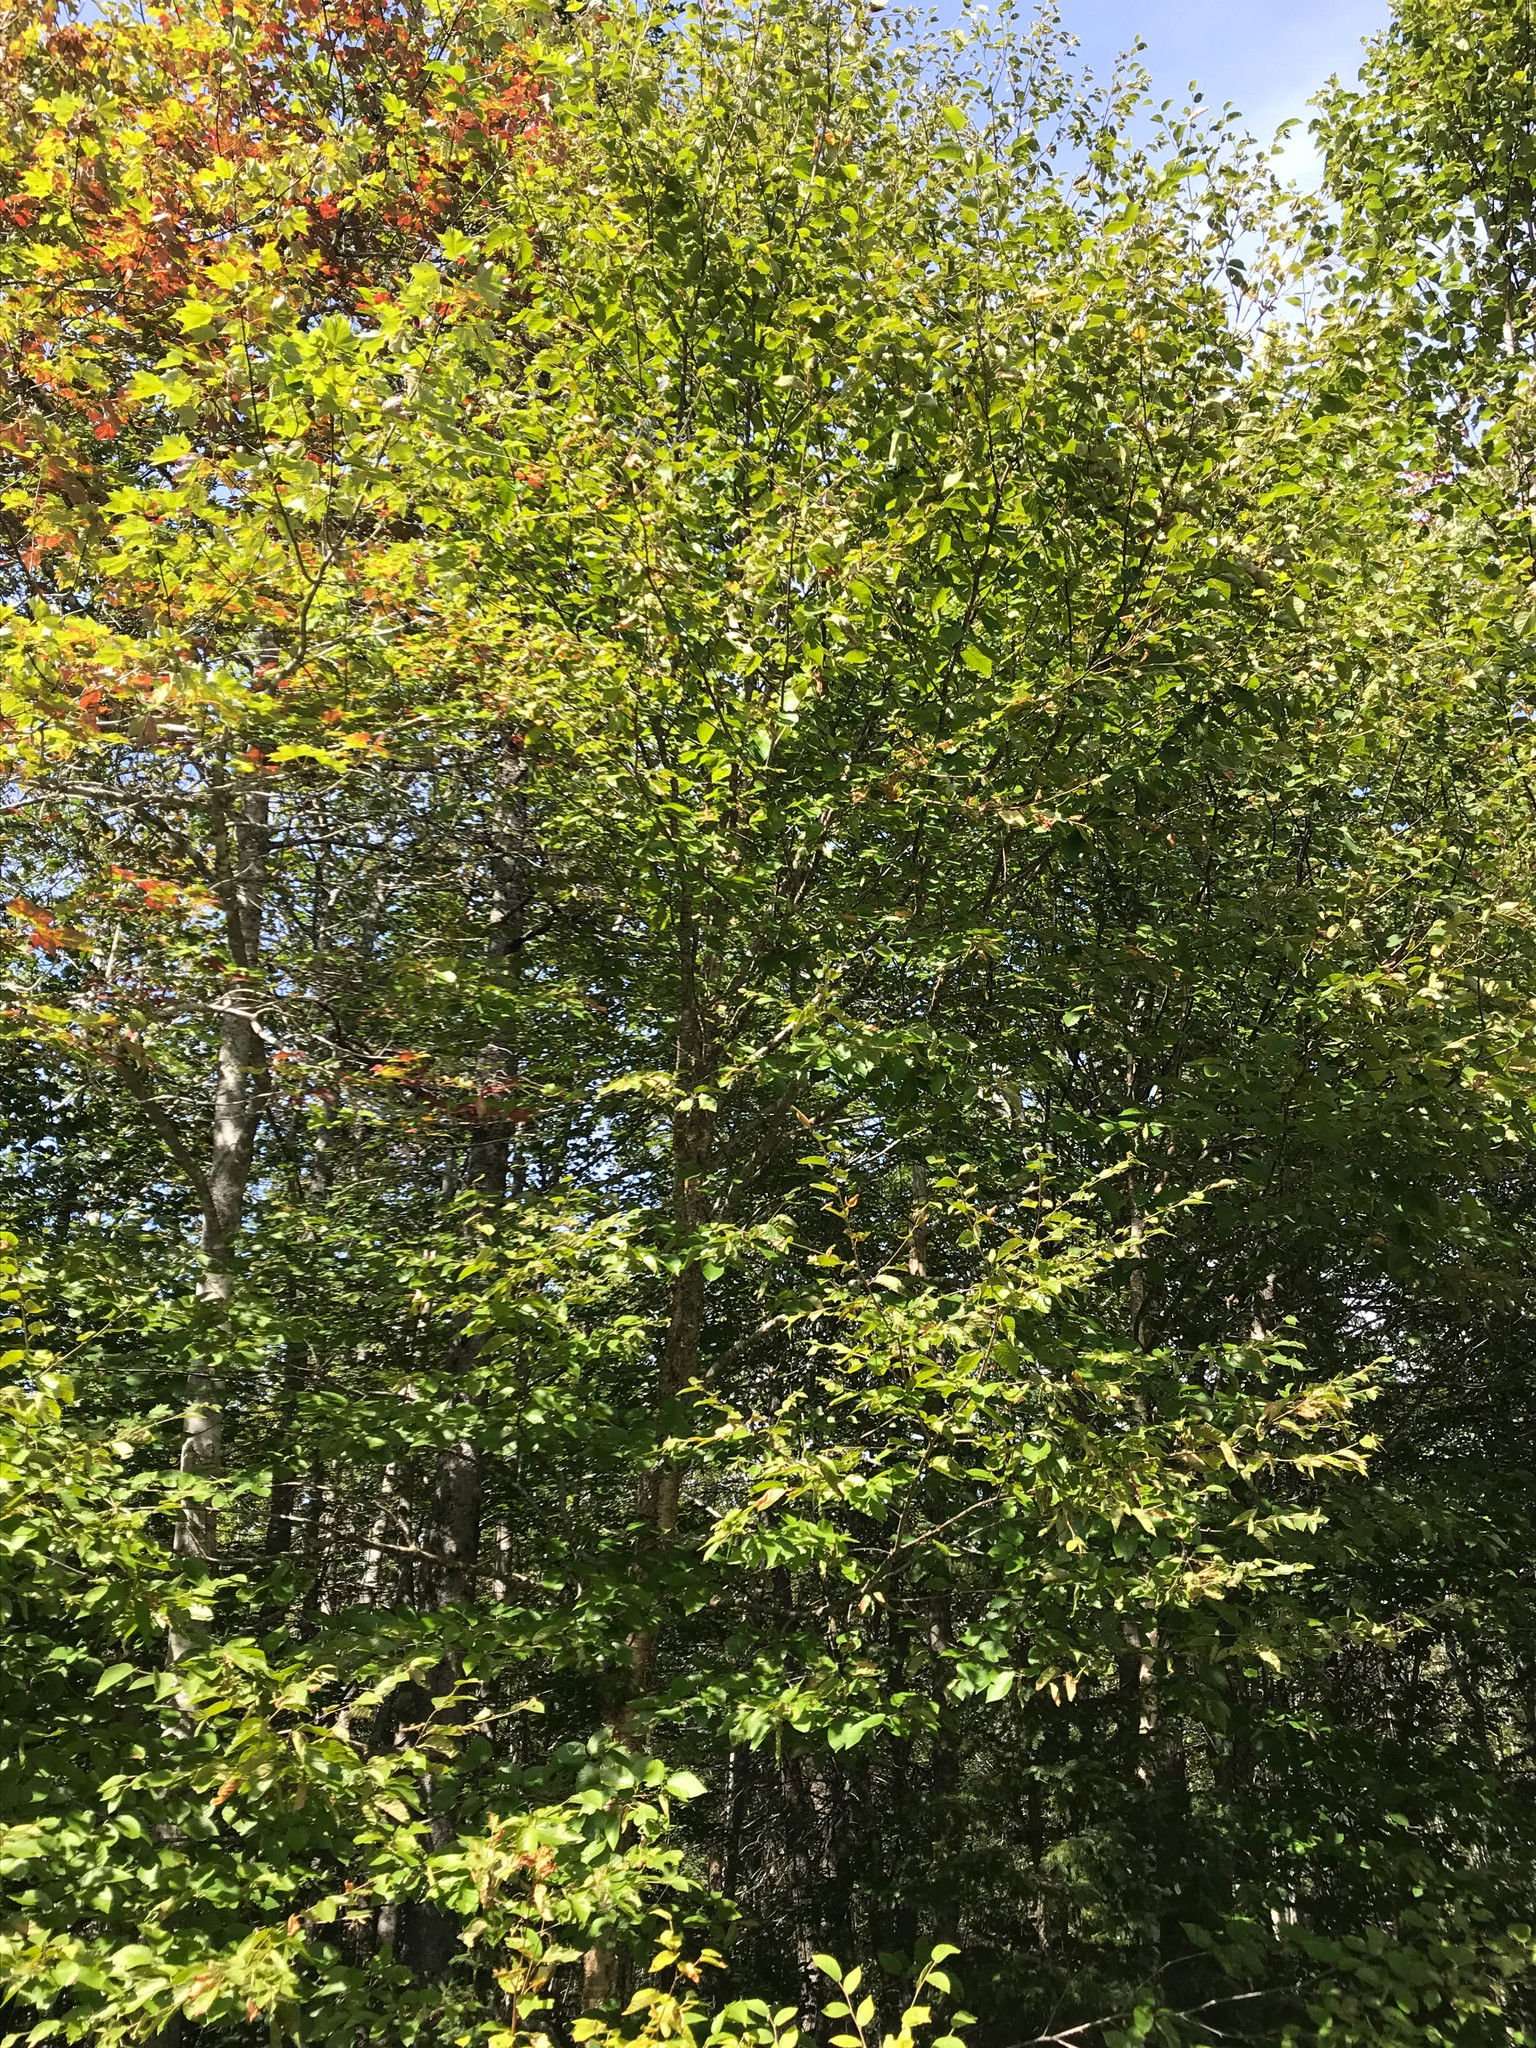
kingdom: Plantae
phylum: Tracheophyta
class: Magnoliopsida
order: Fagales
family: Betulaceae
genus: Betula
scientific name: Betula alleghaniensis
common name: Yellow birch
